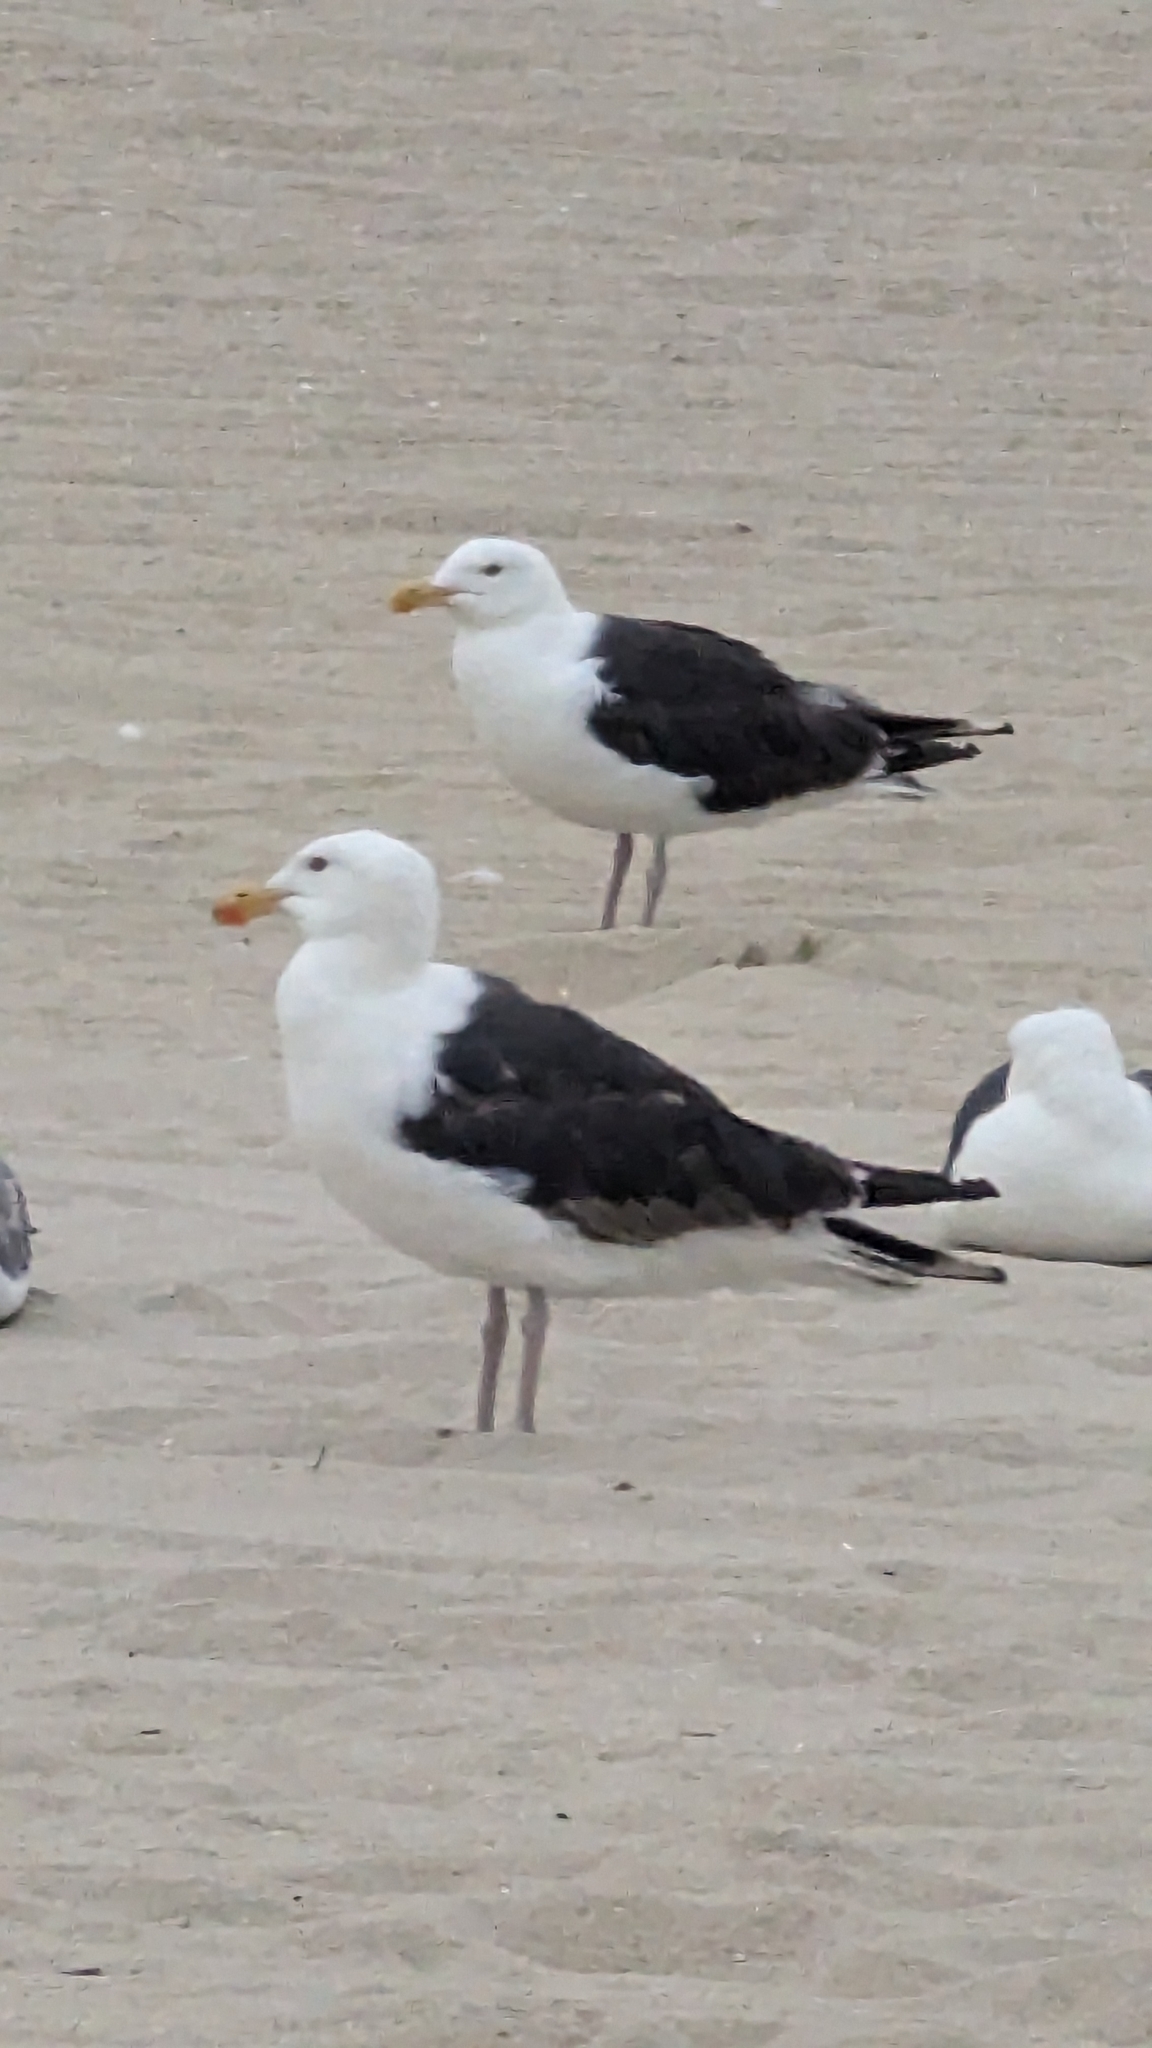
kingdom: Animalia
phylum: Chordata
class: Aves
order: Charadriiformes
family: Laridae
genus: Larus
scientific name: Larus marinus
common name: Great black-backed gull
